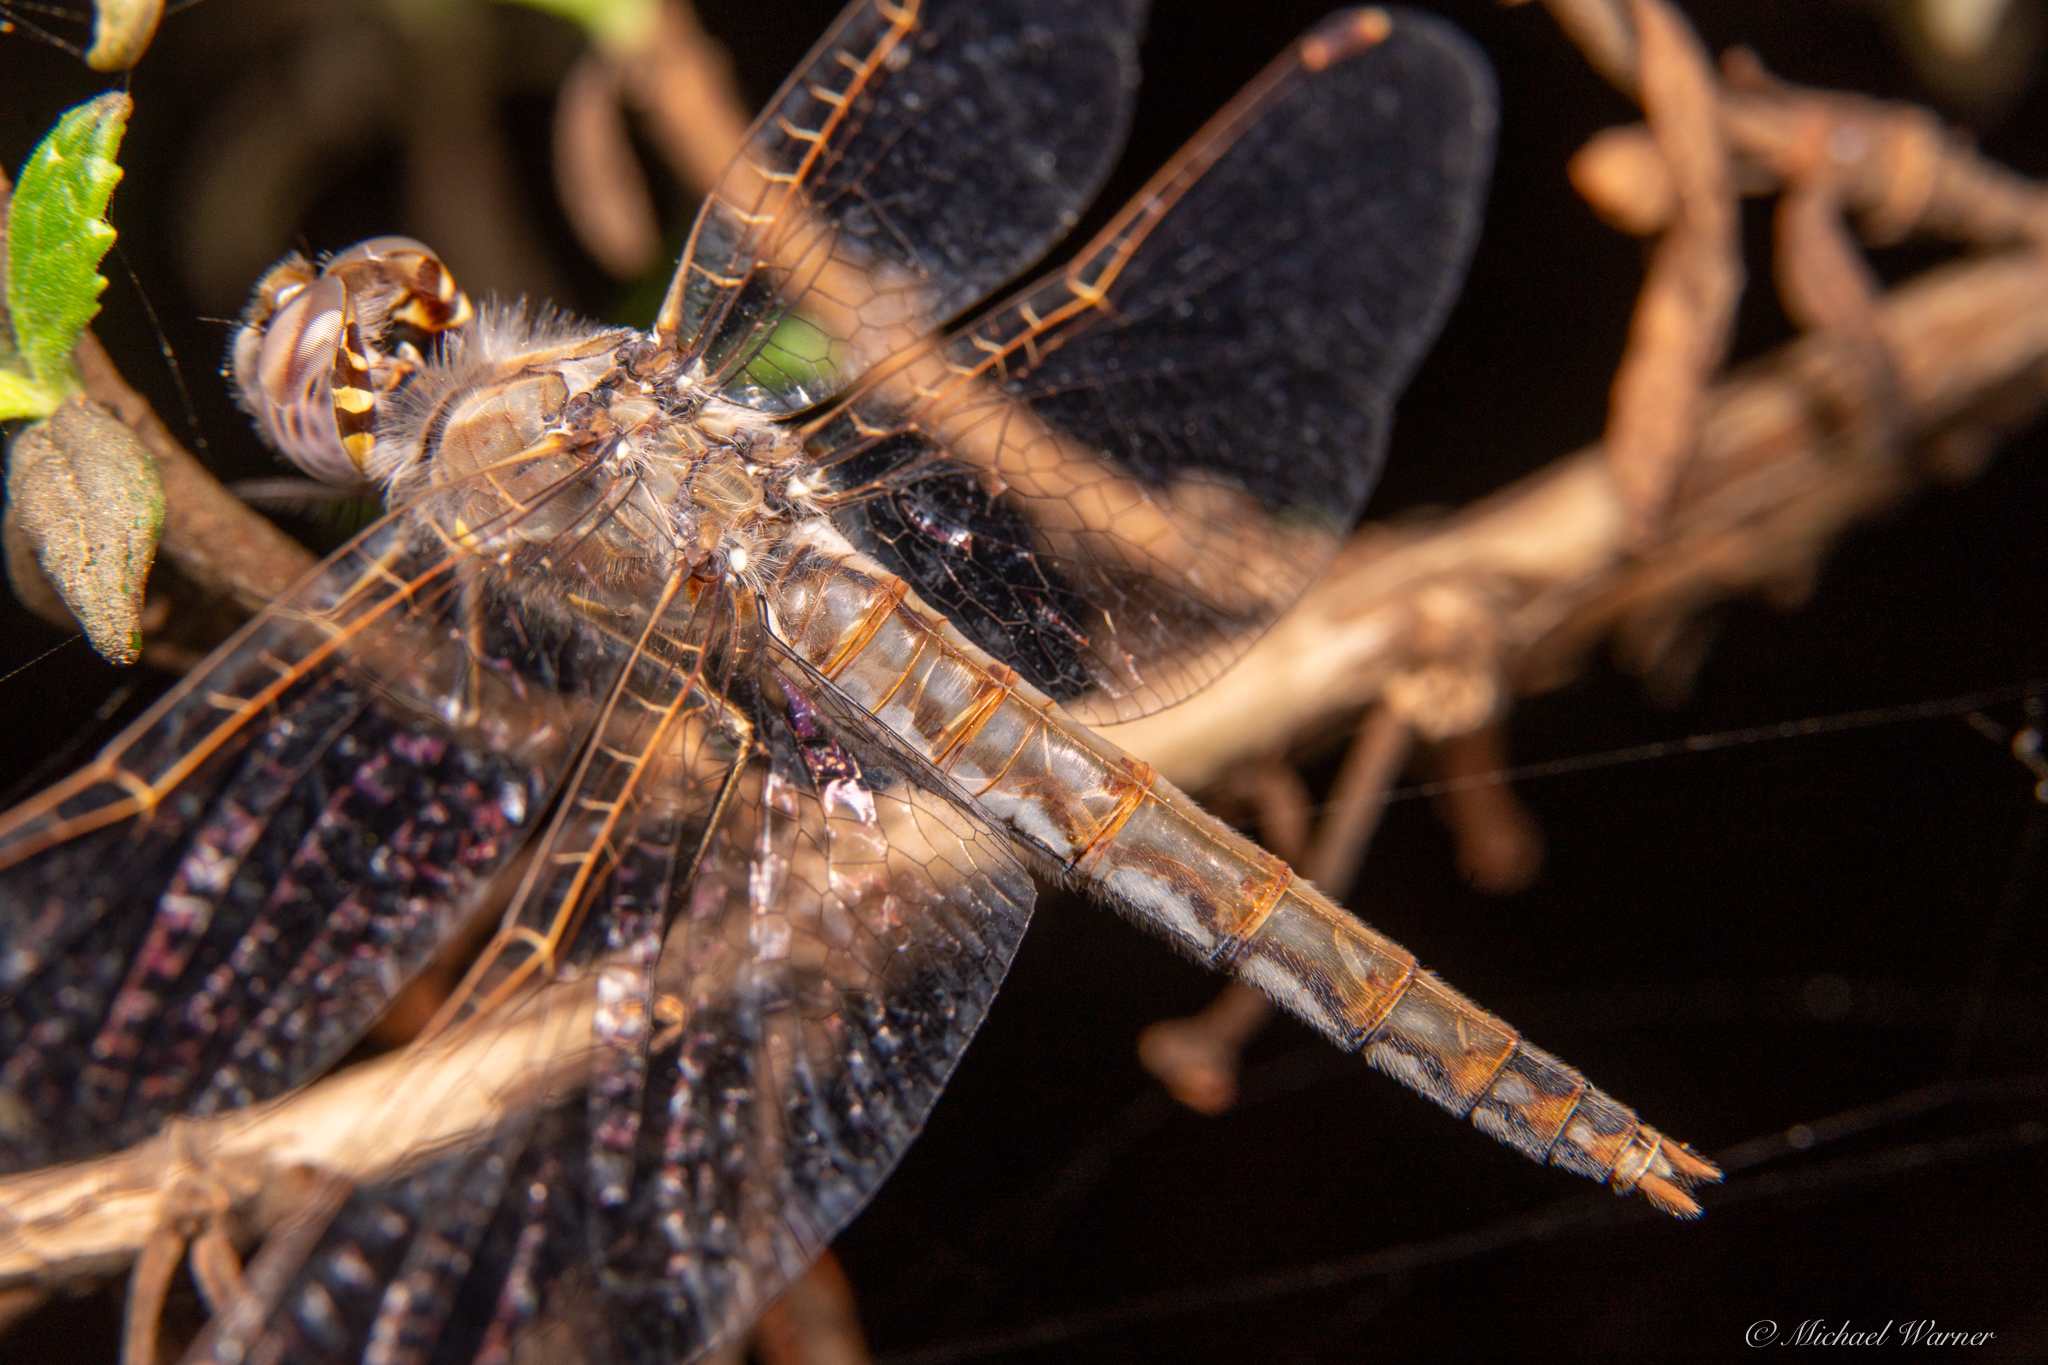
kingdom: Animalia
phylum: Arthropoda
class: Insecta
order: Odonata
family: Libellulidae
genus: Sympetrum
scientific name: Sympetrum corruptum
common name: Variegated meadowhawk
